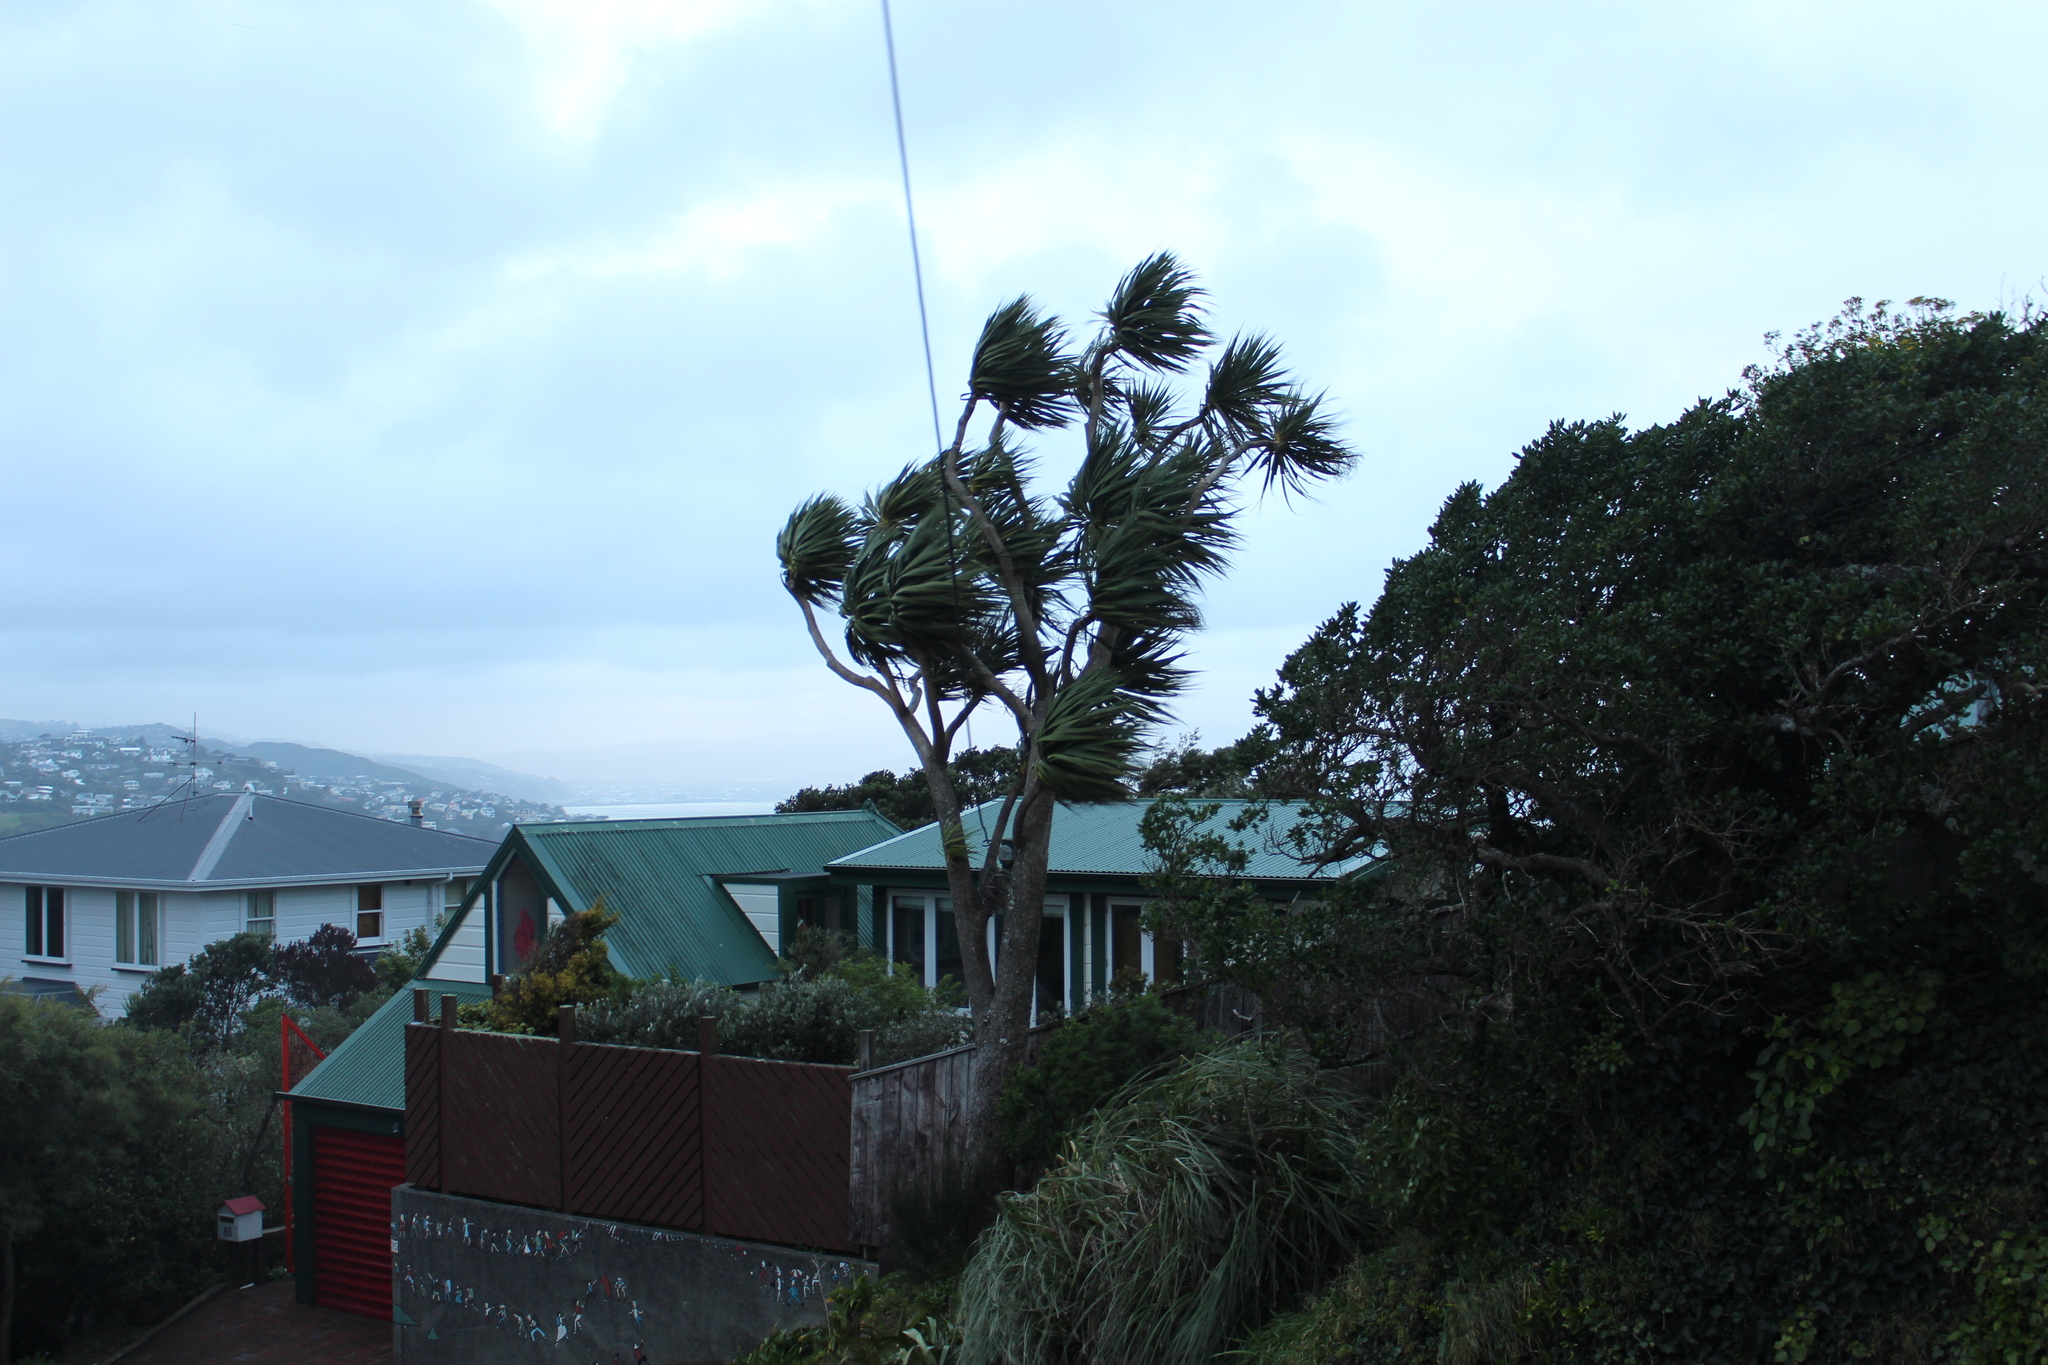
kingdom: Plantae
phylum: Tracheophyta
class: Liliopsida
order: Asparagales
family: Asparagaceae
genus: Cordyline
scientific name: Cordyline australis
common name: Cabbage-palm
